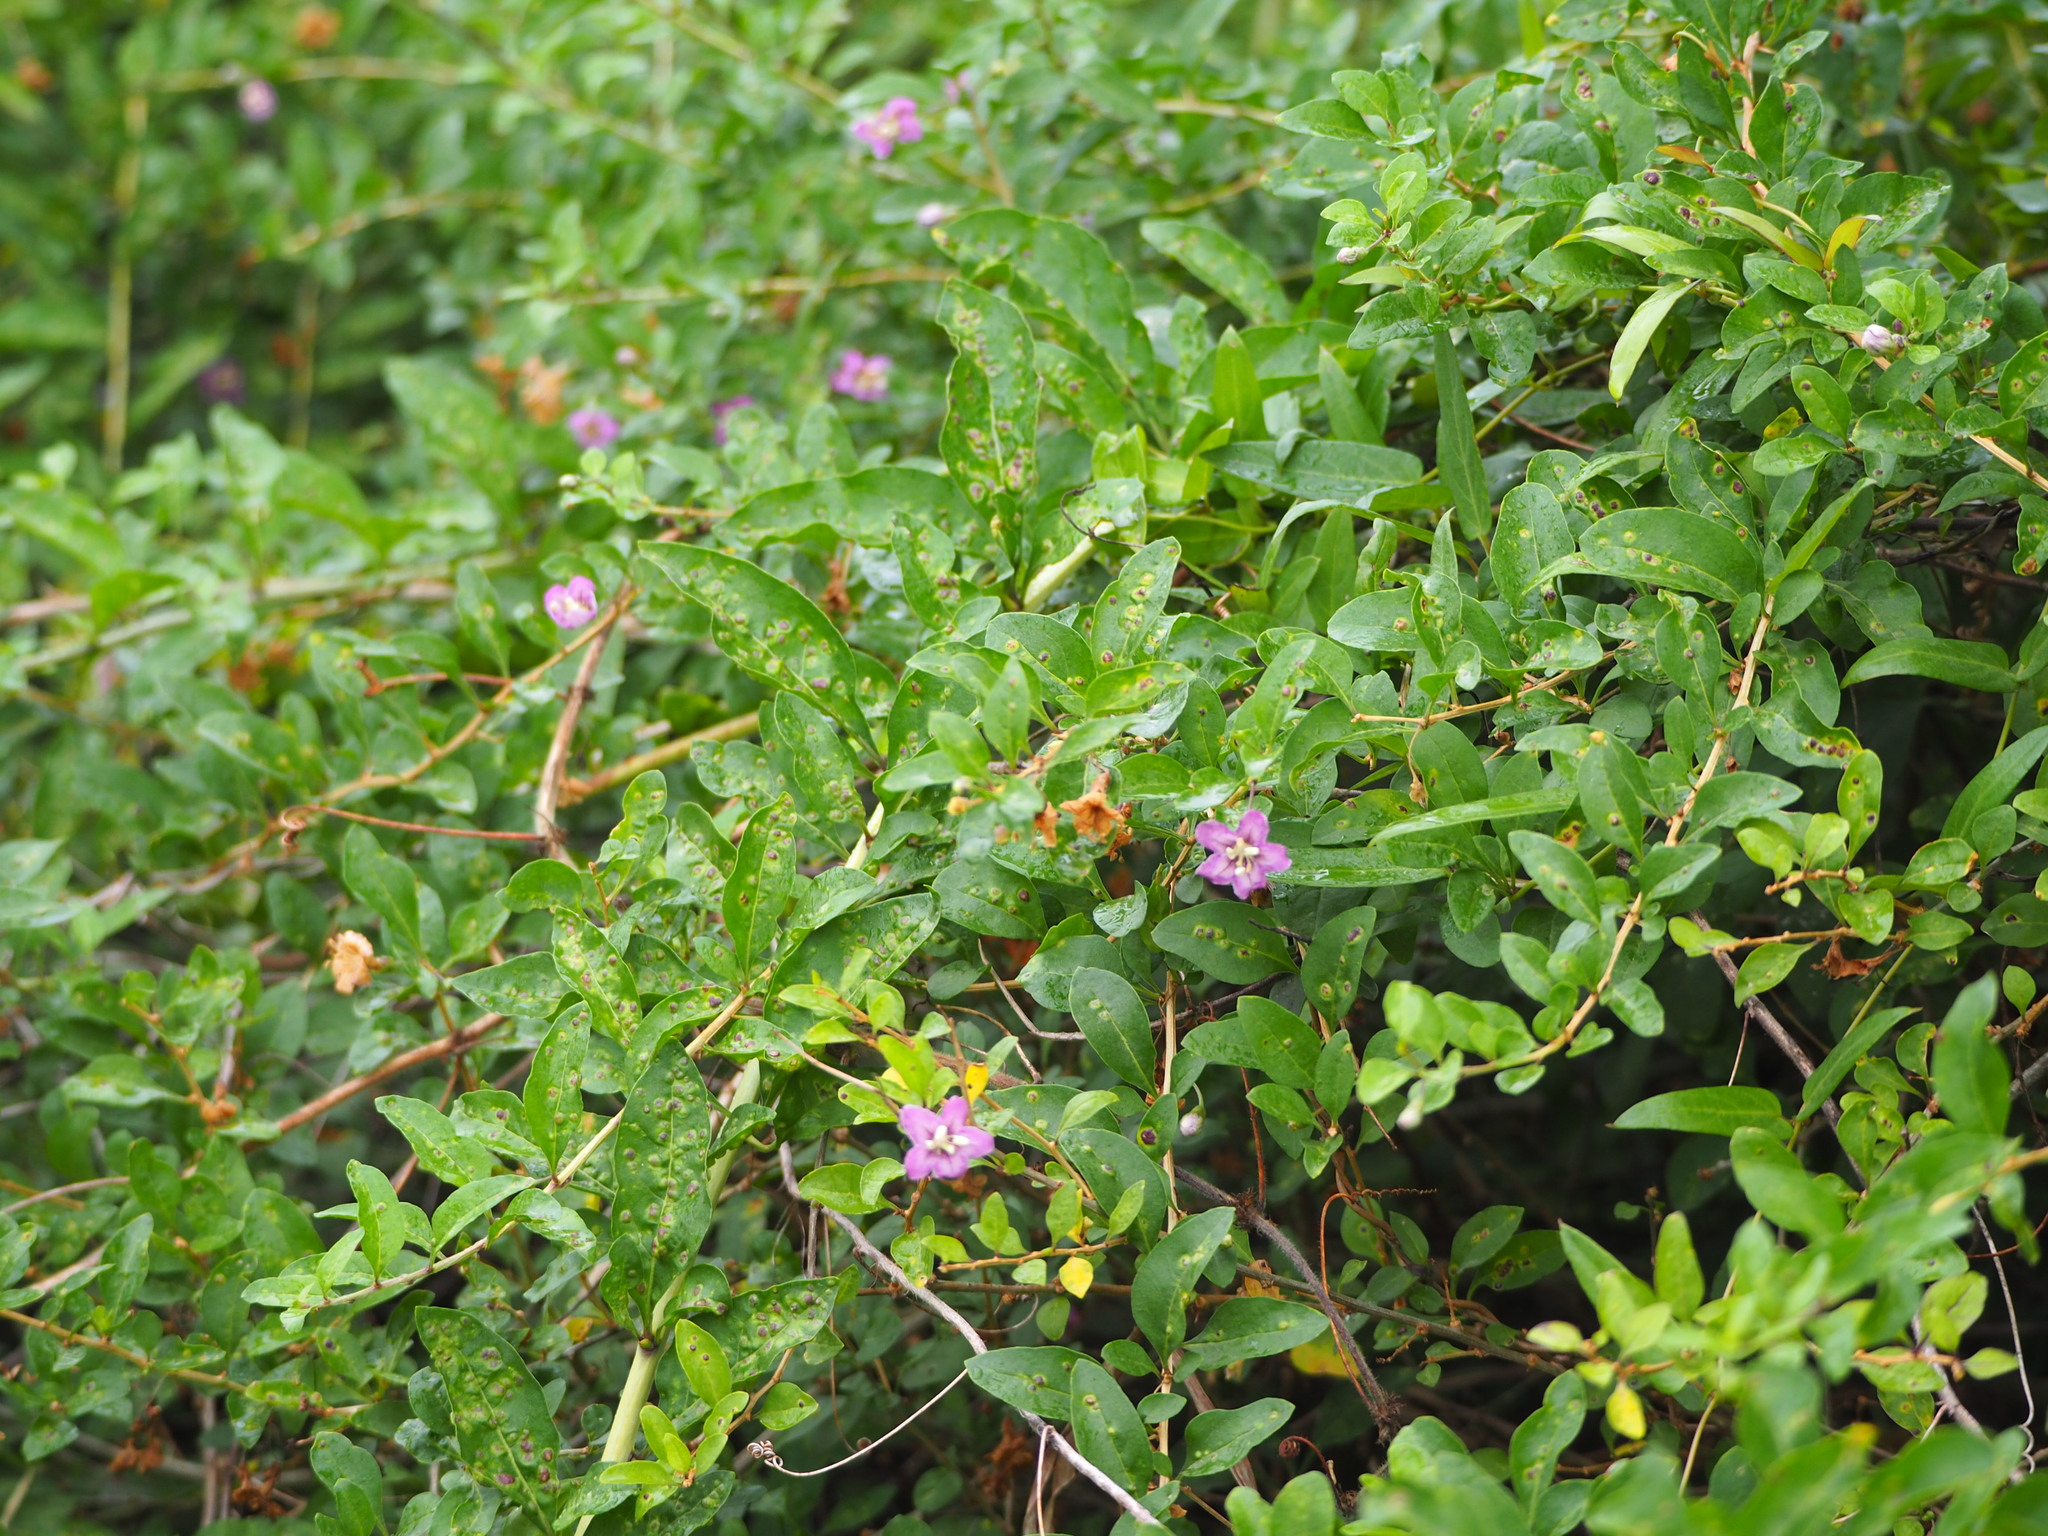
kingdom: Plantae
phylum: Tracheophyta
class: Magnoliopsida
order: Solanales
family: Solanaceae
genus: Lycium
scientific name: Lycium chinense
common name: Chinese teaplant
